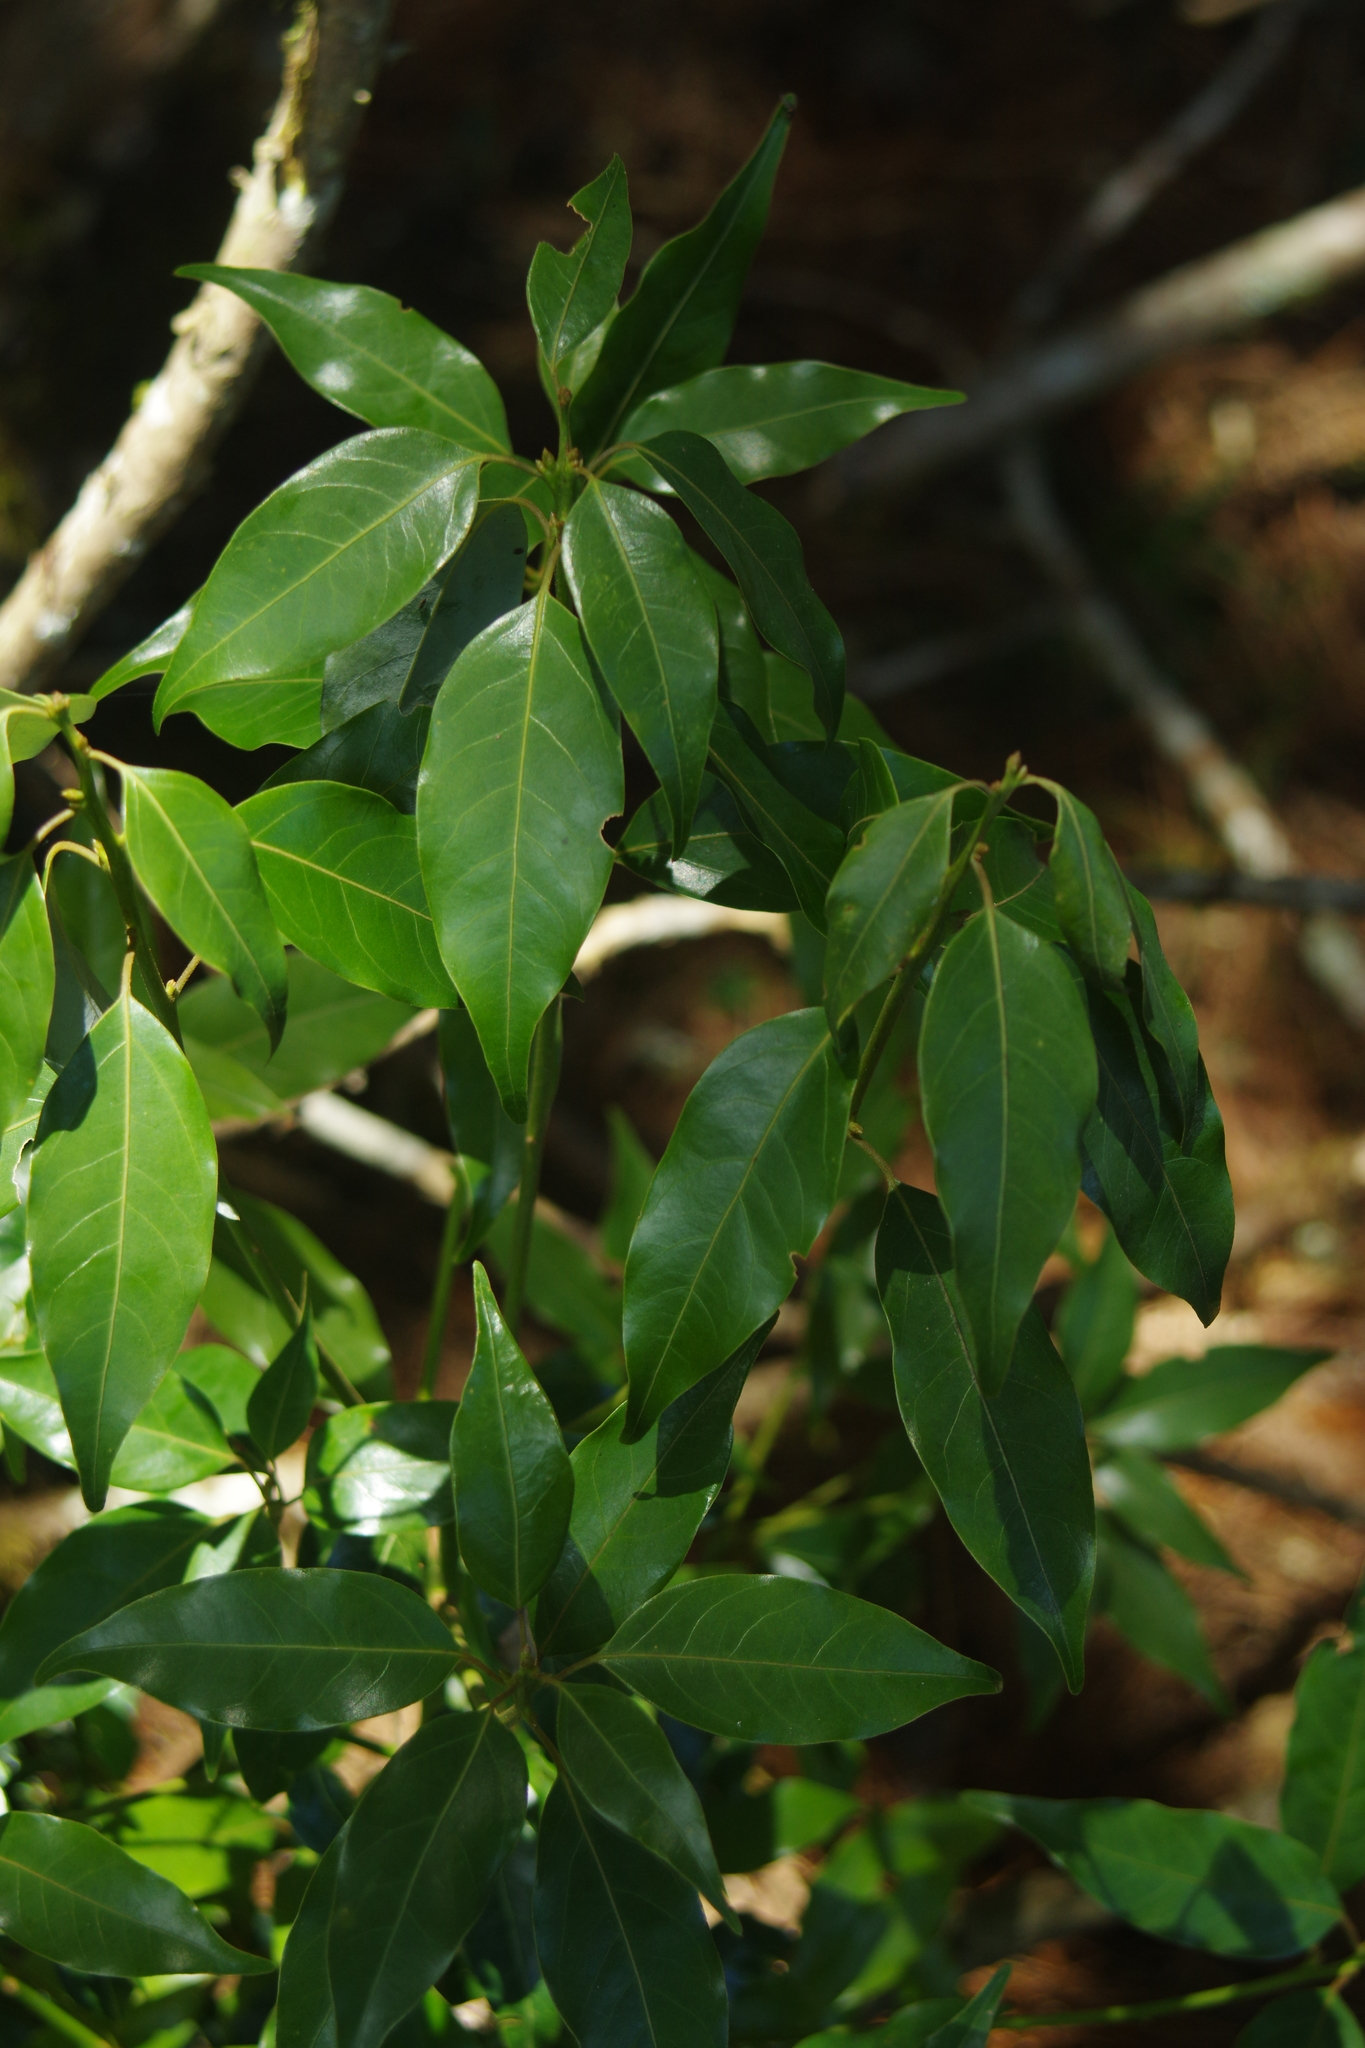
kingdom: Plantae
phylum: Tracheophyta
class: Magnoliopsida
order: Laurales
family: Lauraceae
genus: Neolitsea
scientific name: Neolitsea acuminatissima
